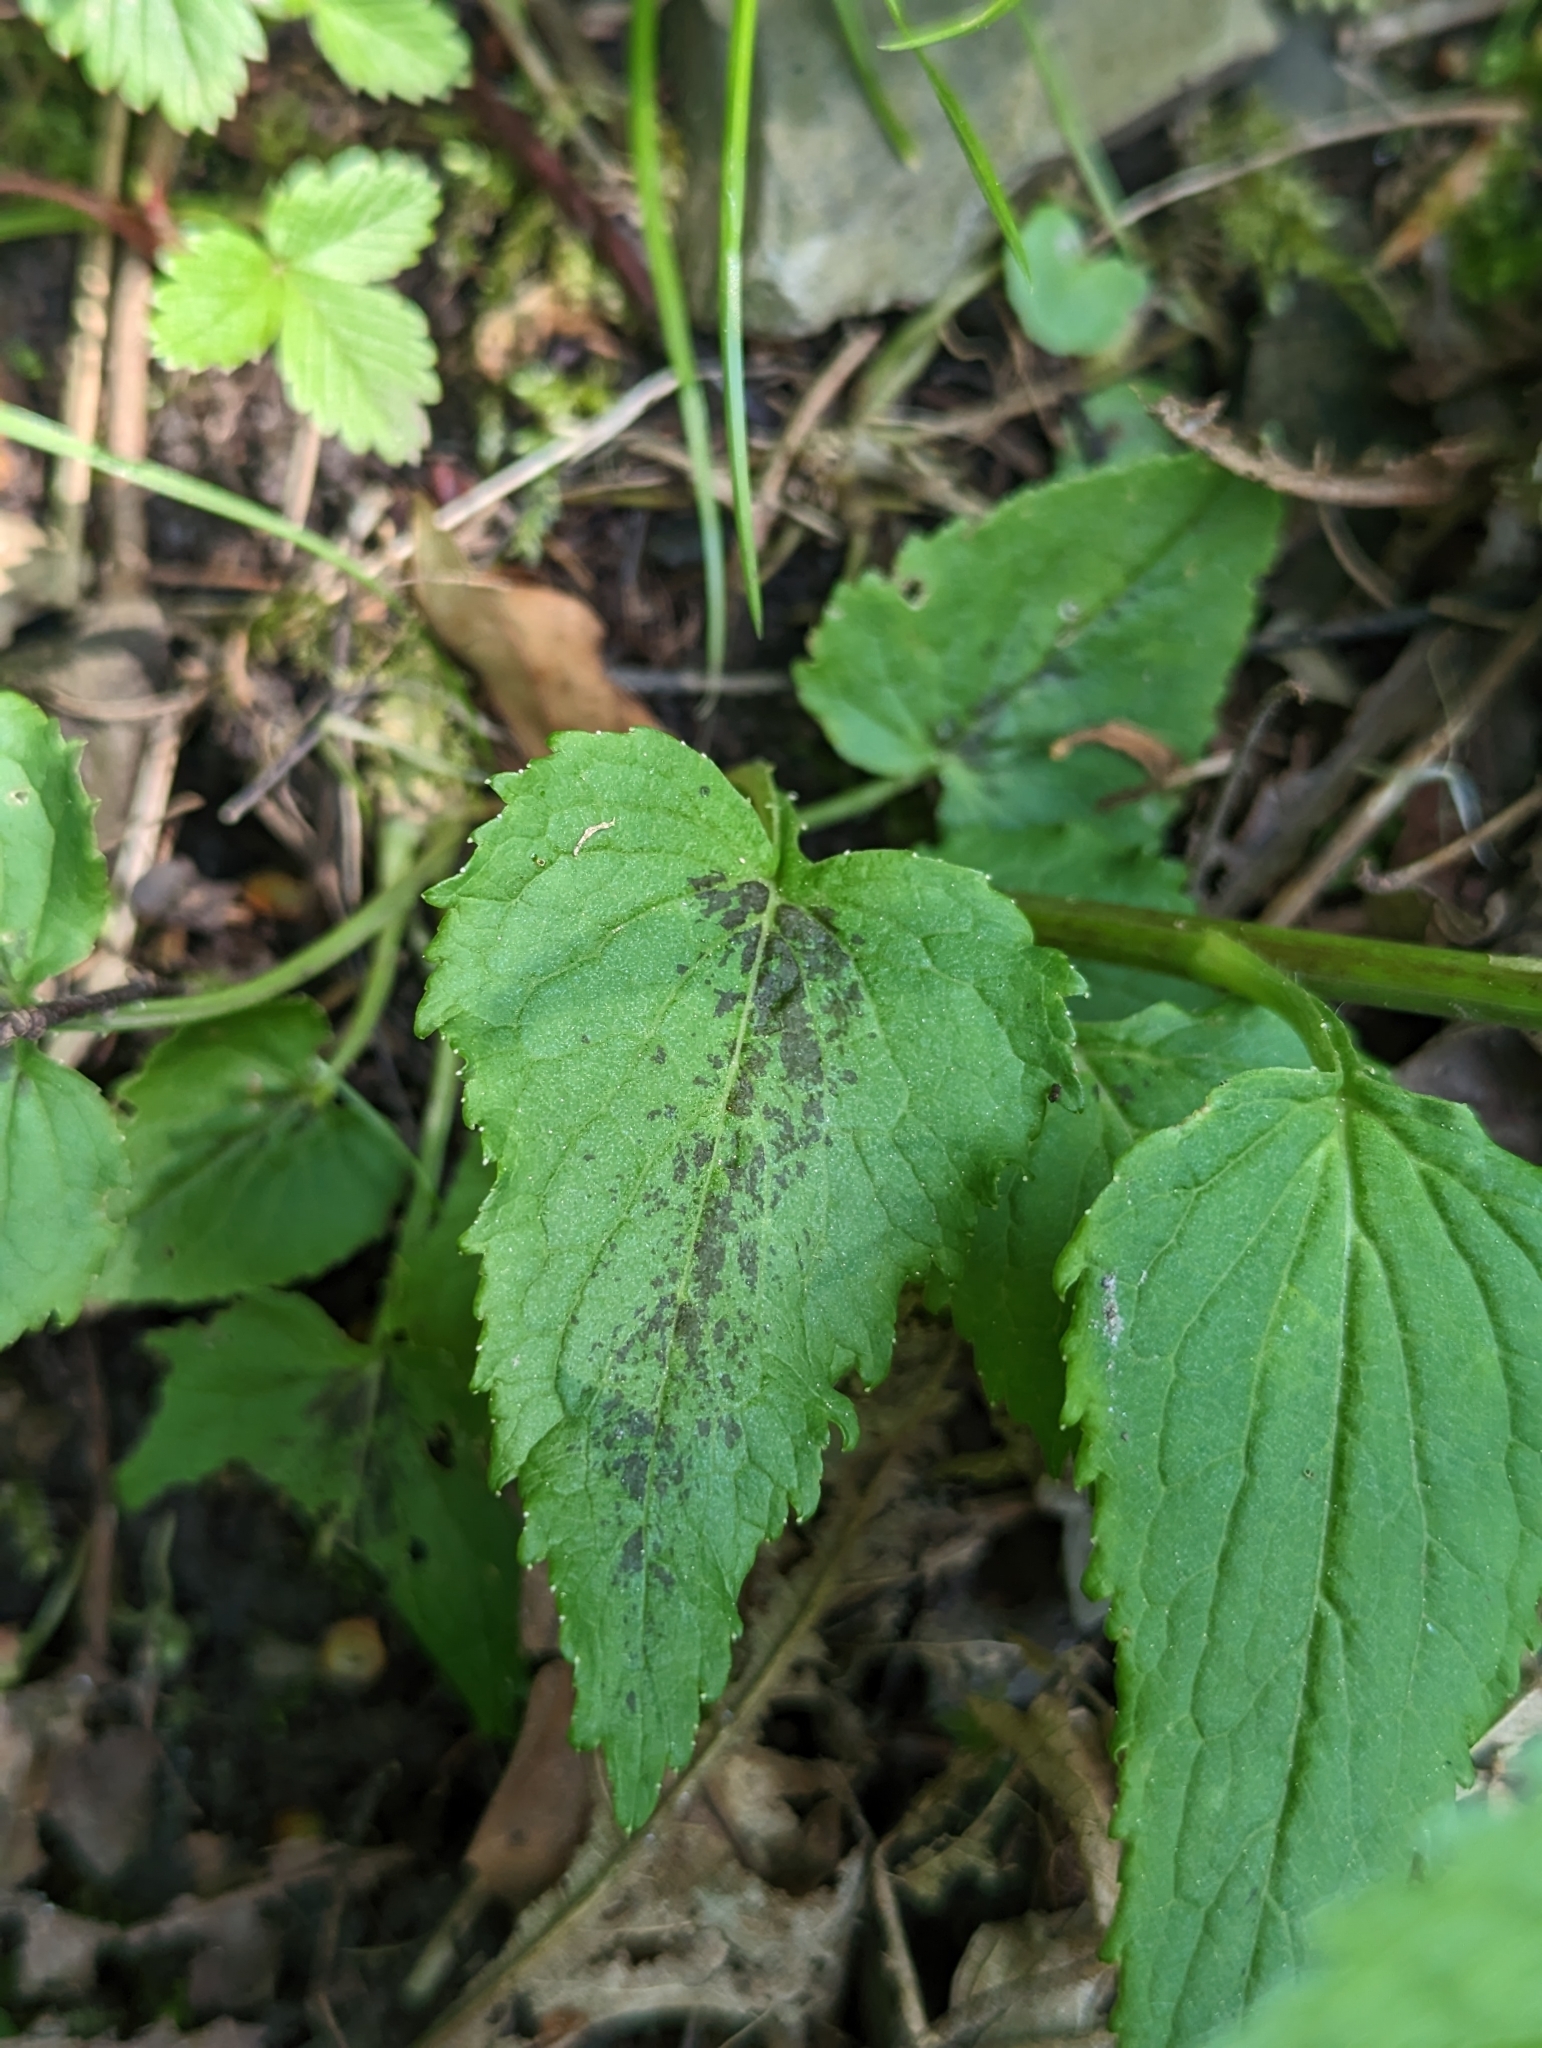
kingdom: Plantae
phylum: Tracheophyta
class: Magnoliopsida
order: Asterales
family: Campanulaceae
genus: Phyteuma
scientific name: Phyteuma spicatum
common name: Spiked rampion
